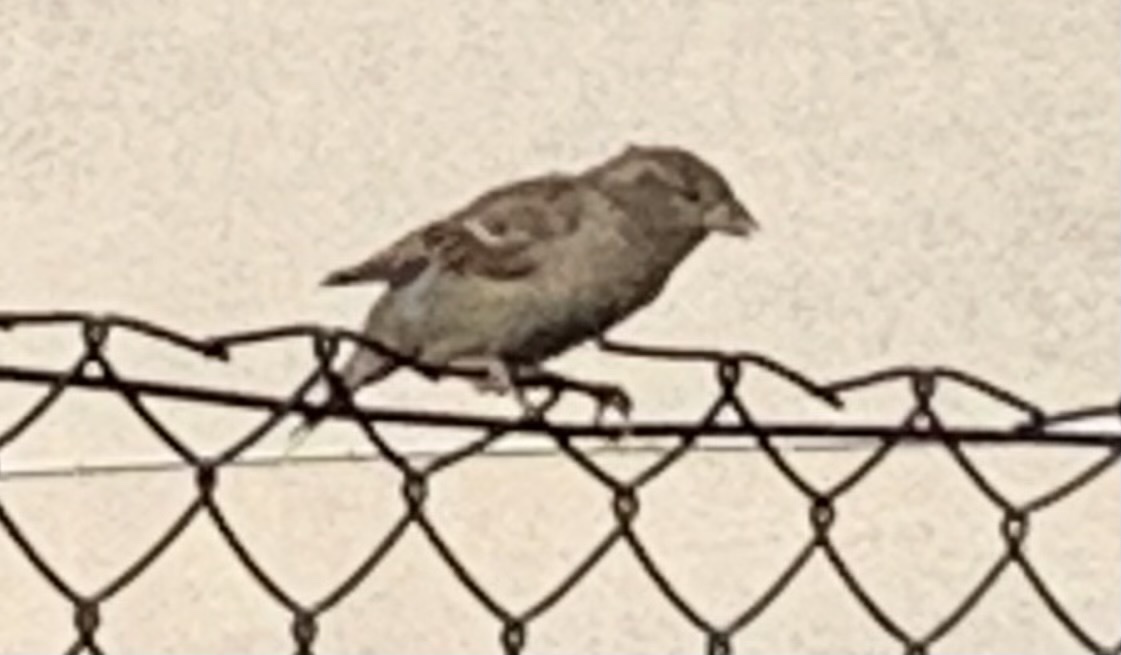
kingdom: Animalia
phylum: Chordata
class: Aves
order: Passeriformes
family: Passeridae
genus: Passer
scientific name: Passer domesticus
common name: House sparrow
